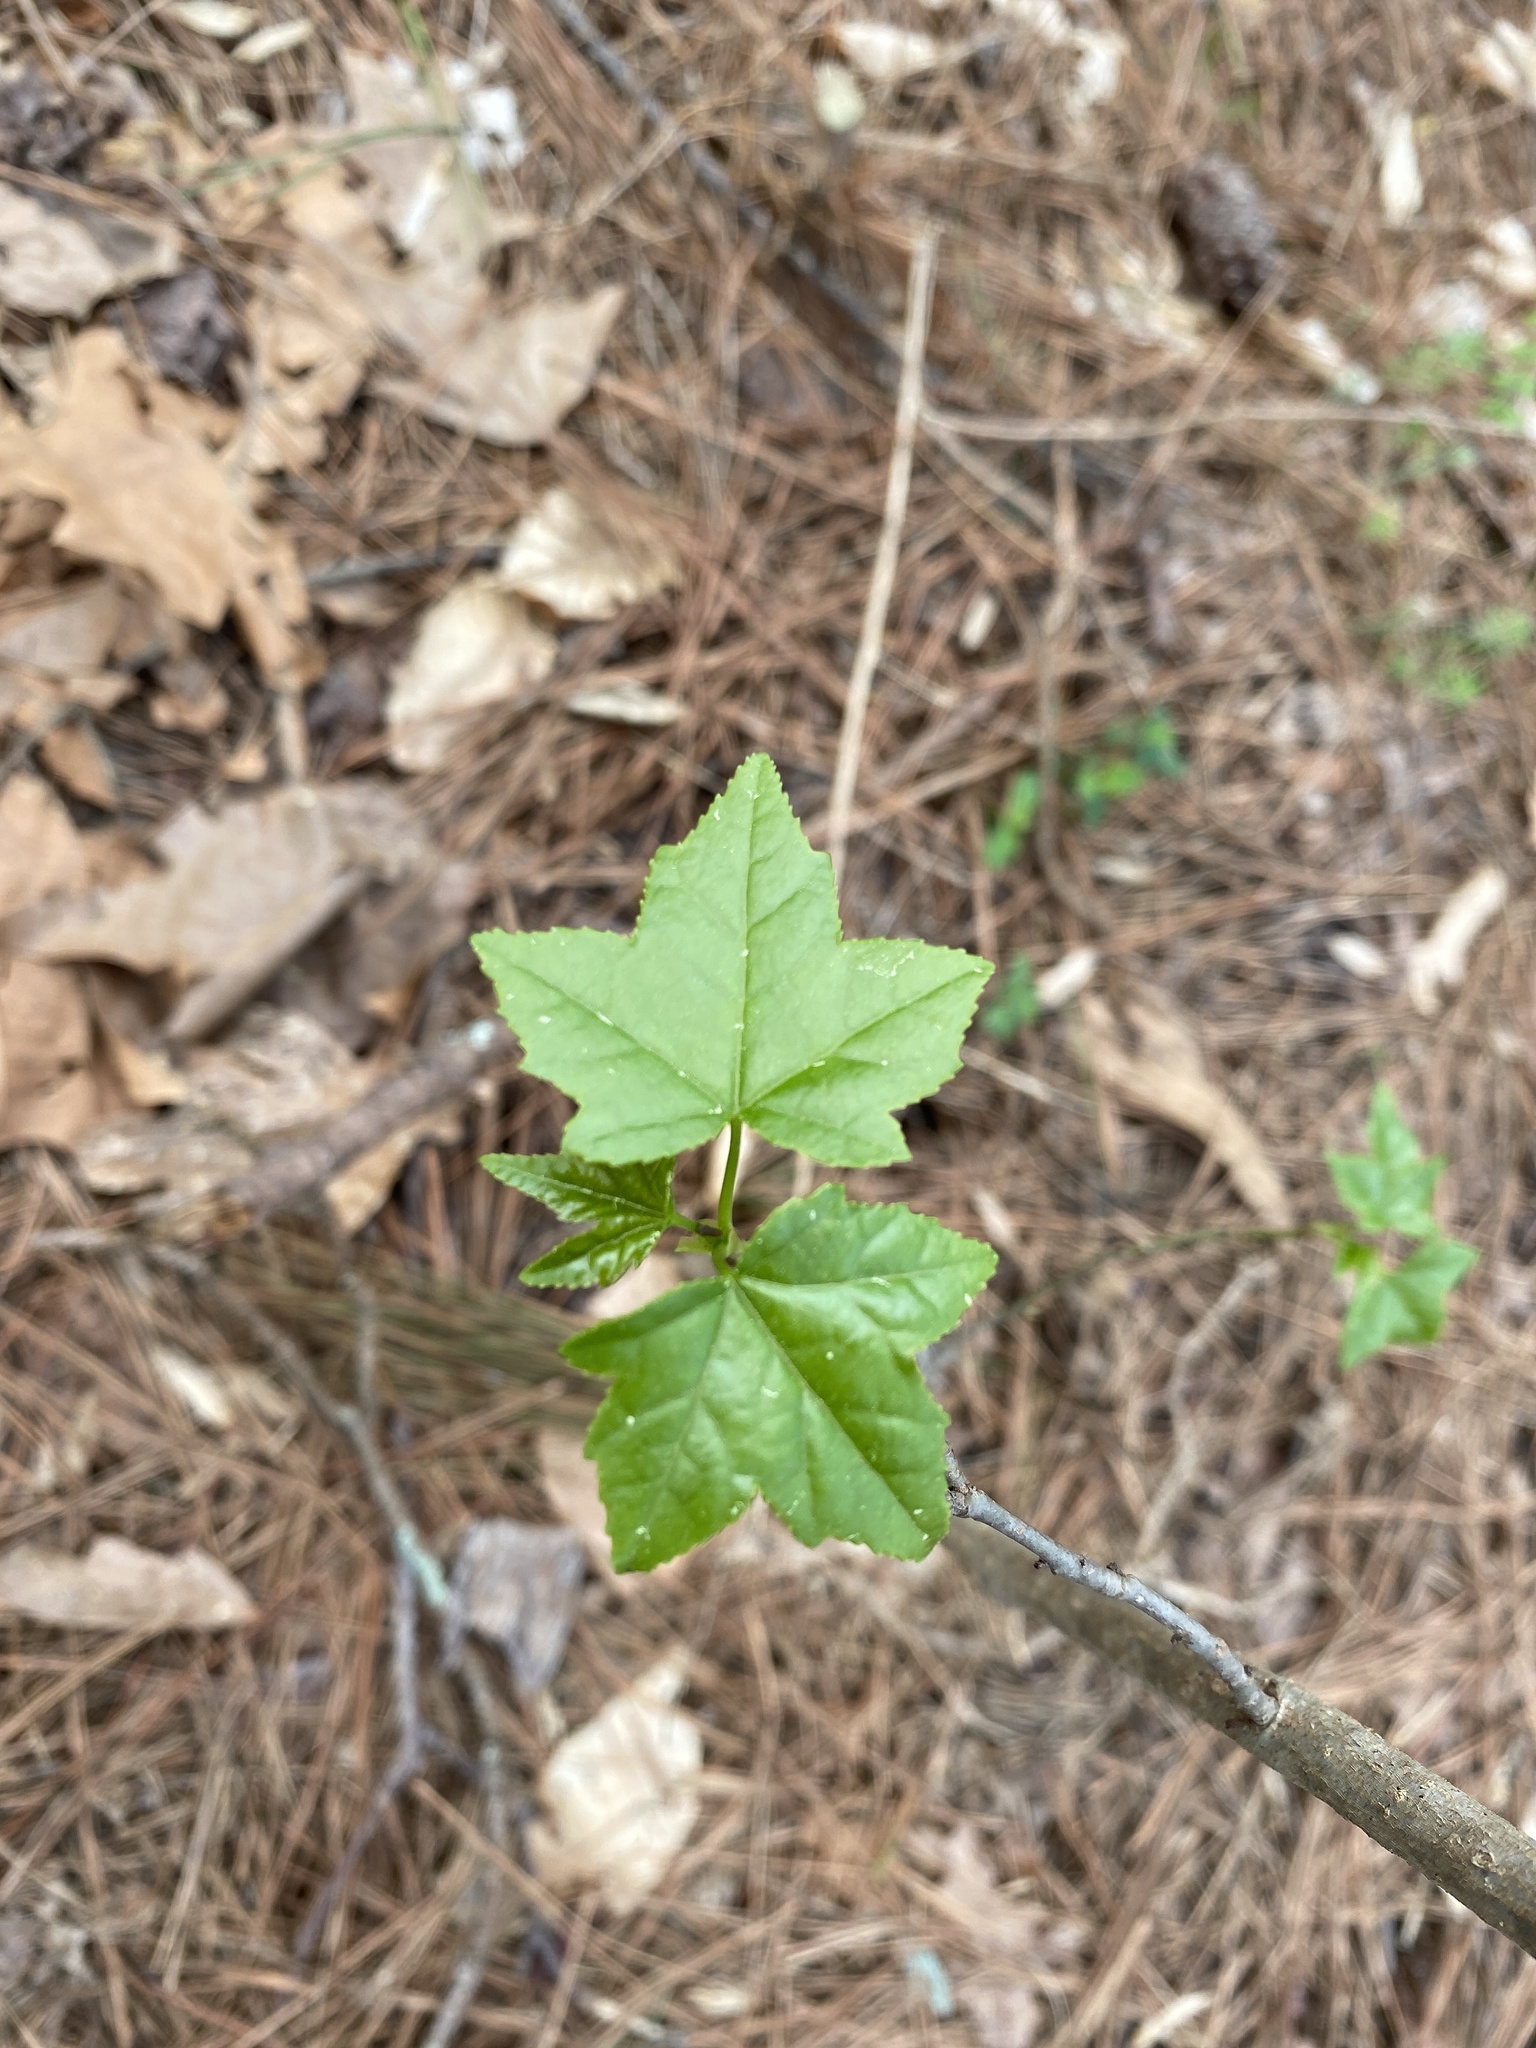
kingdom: Plantae
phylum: Tracheophyta
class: Magnoliopsida
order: Saxifragales
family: Altingiaceae
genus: Liquidambar
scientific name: Liquidambar styraciflua
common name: Sweet gum
